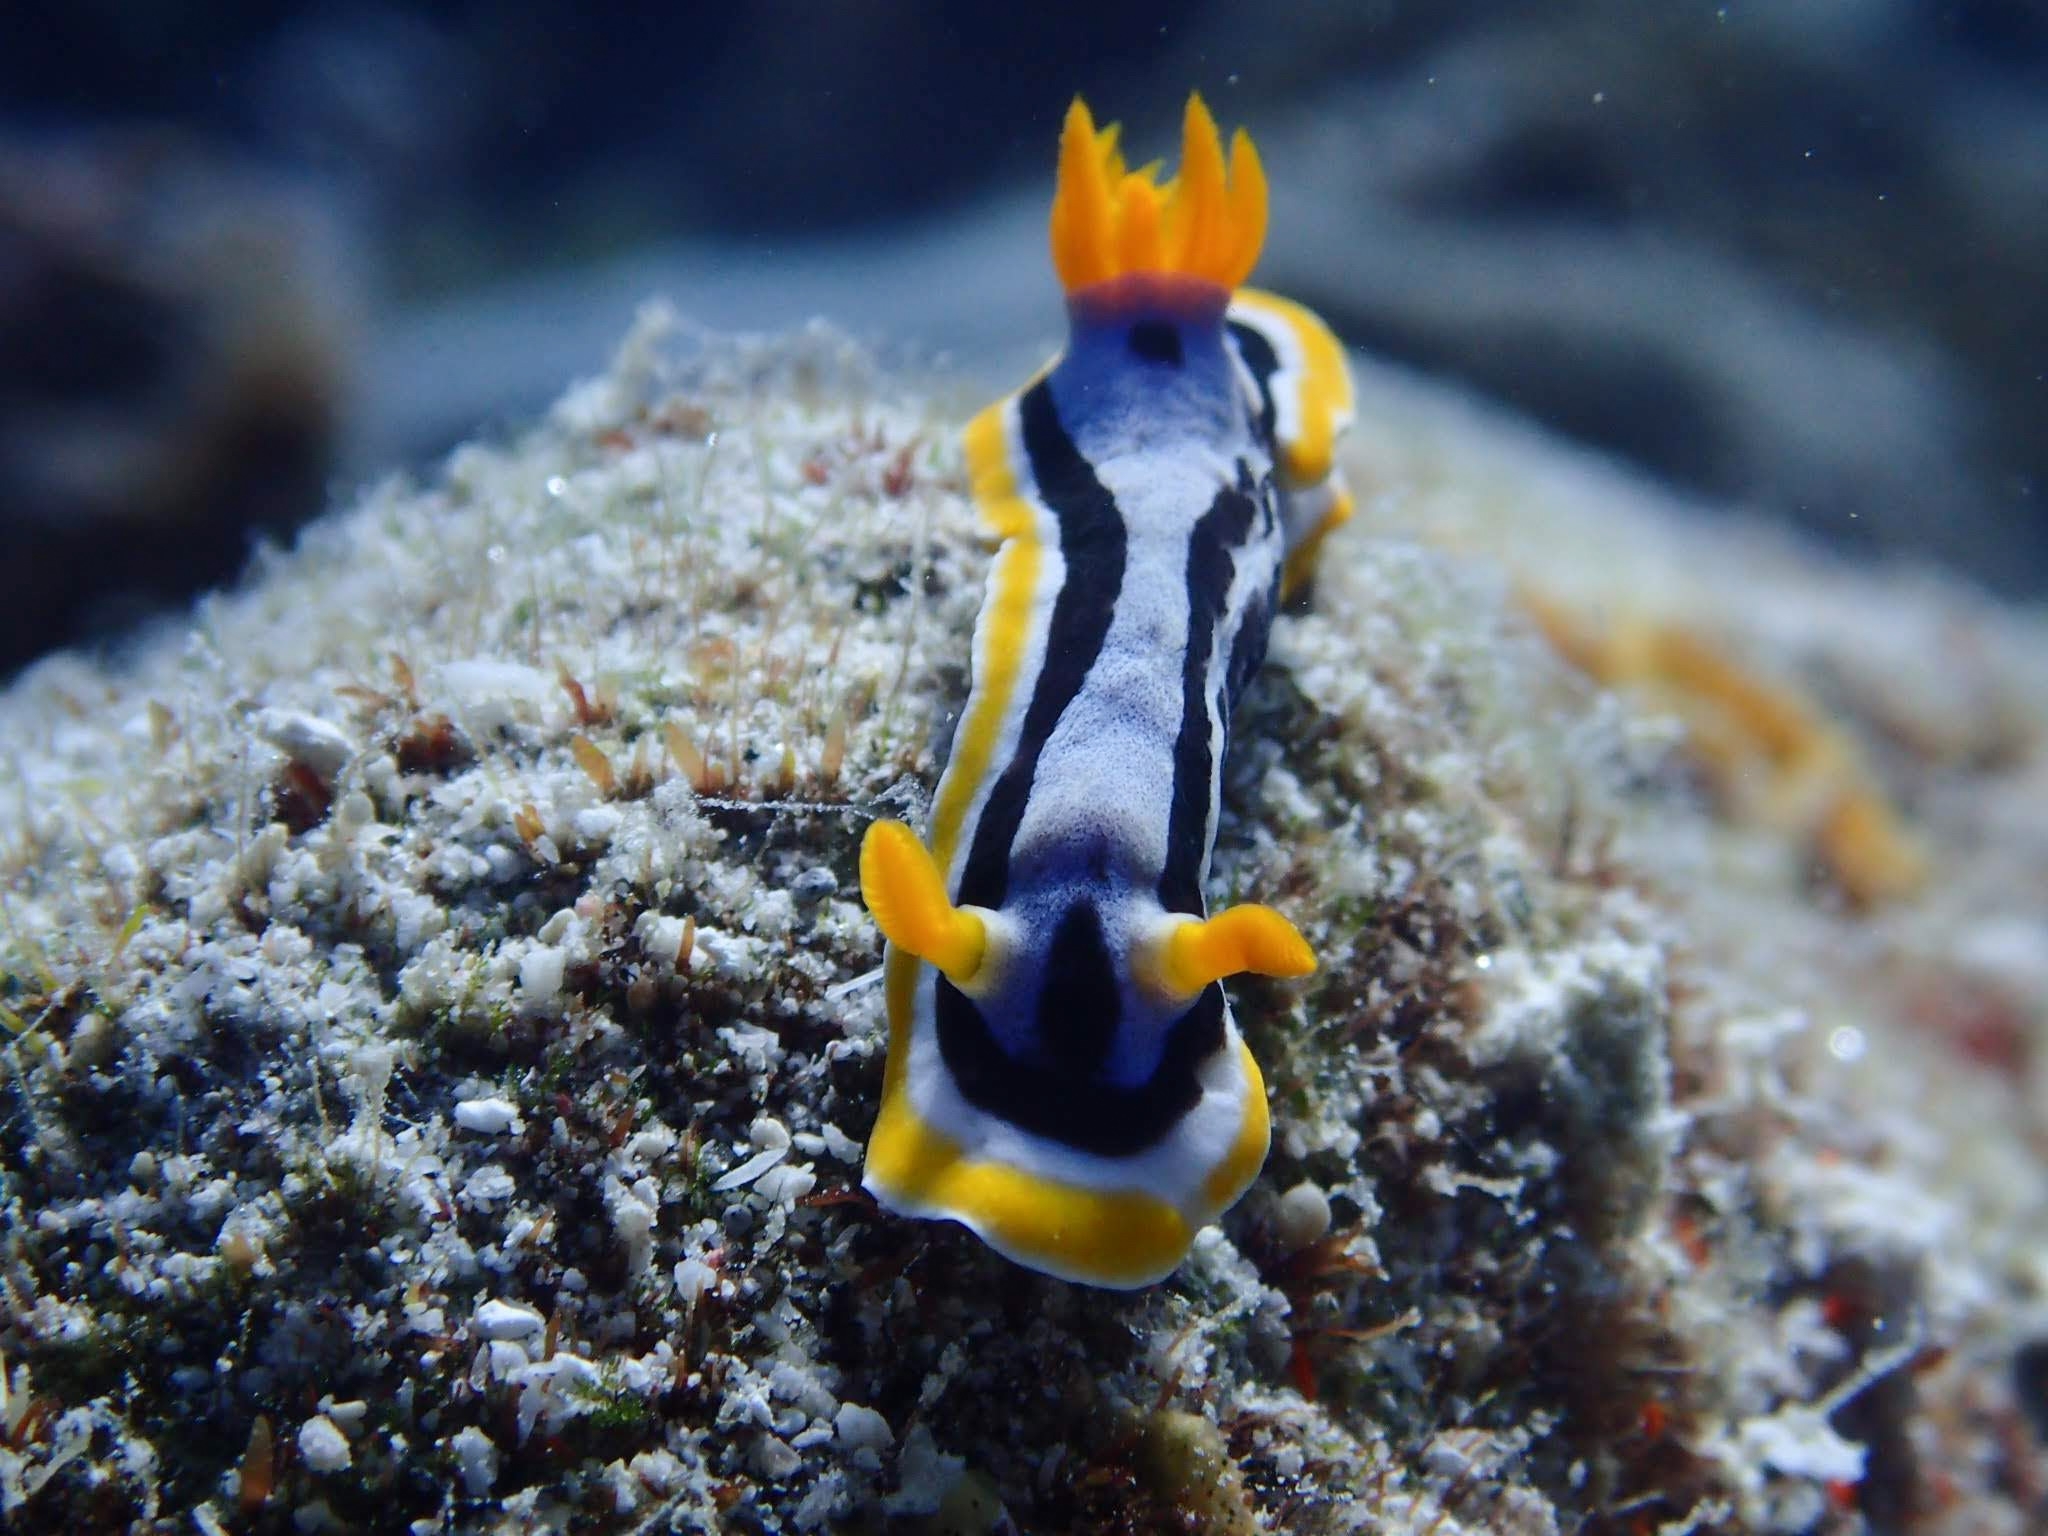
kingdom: Animalia
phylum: Mollusca
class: Gastropoda
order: Nudibranchia
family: Chromodorididae
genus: Chromodoris
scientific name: Chromodoris annae
